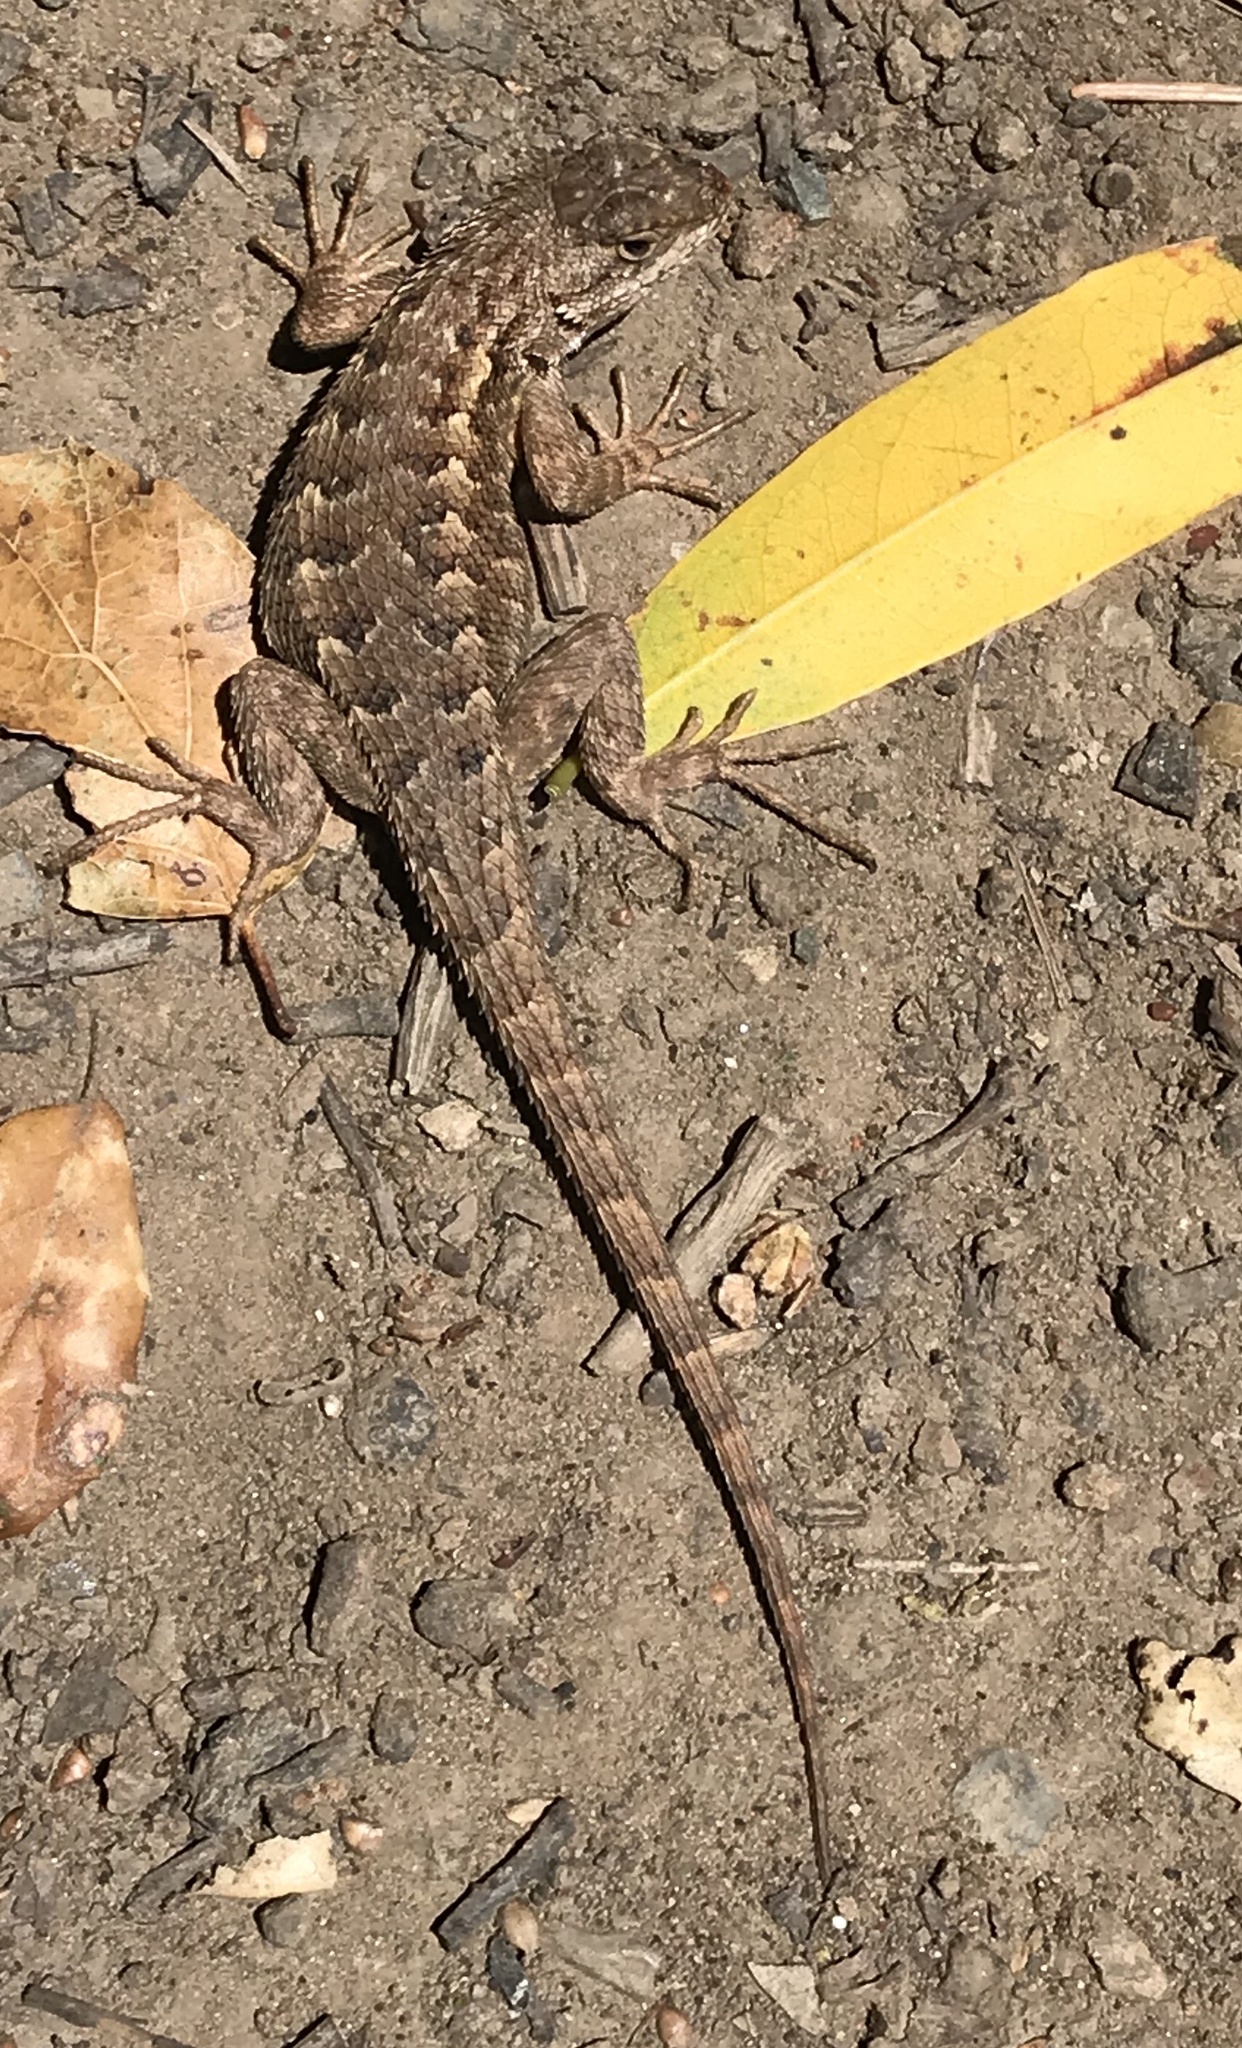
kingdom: Animalia
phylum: Chordata
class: Squamata
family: Phrynosomatidae
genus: Sceloporus
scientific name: Sceloporus occidentalis
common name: Western fence lizard
